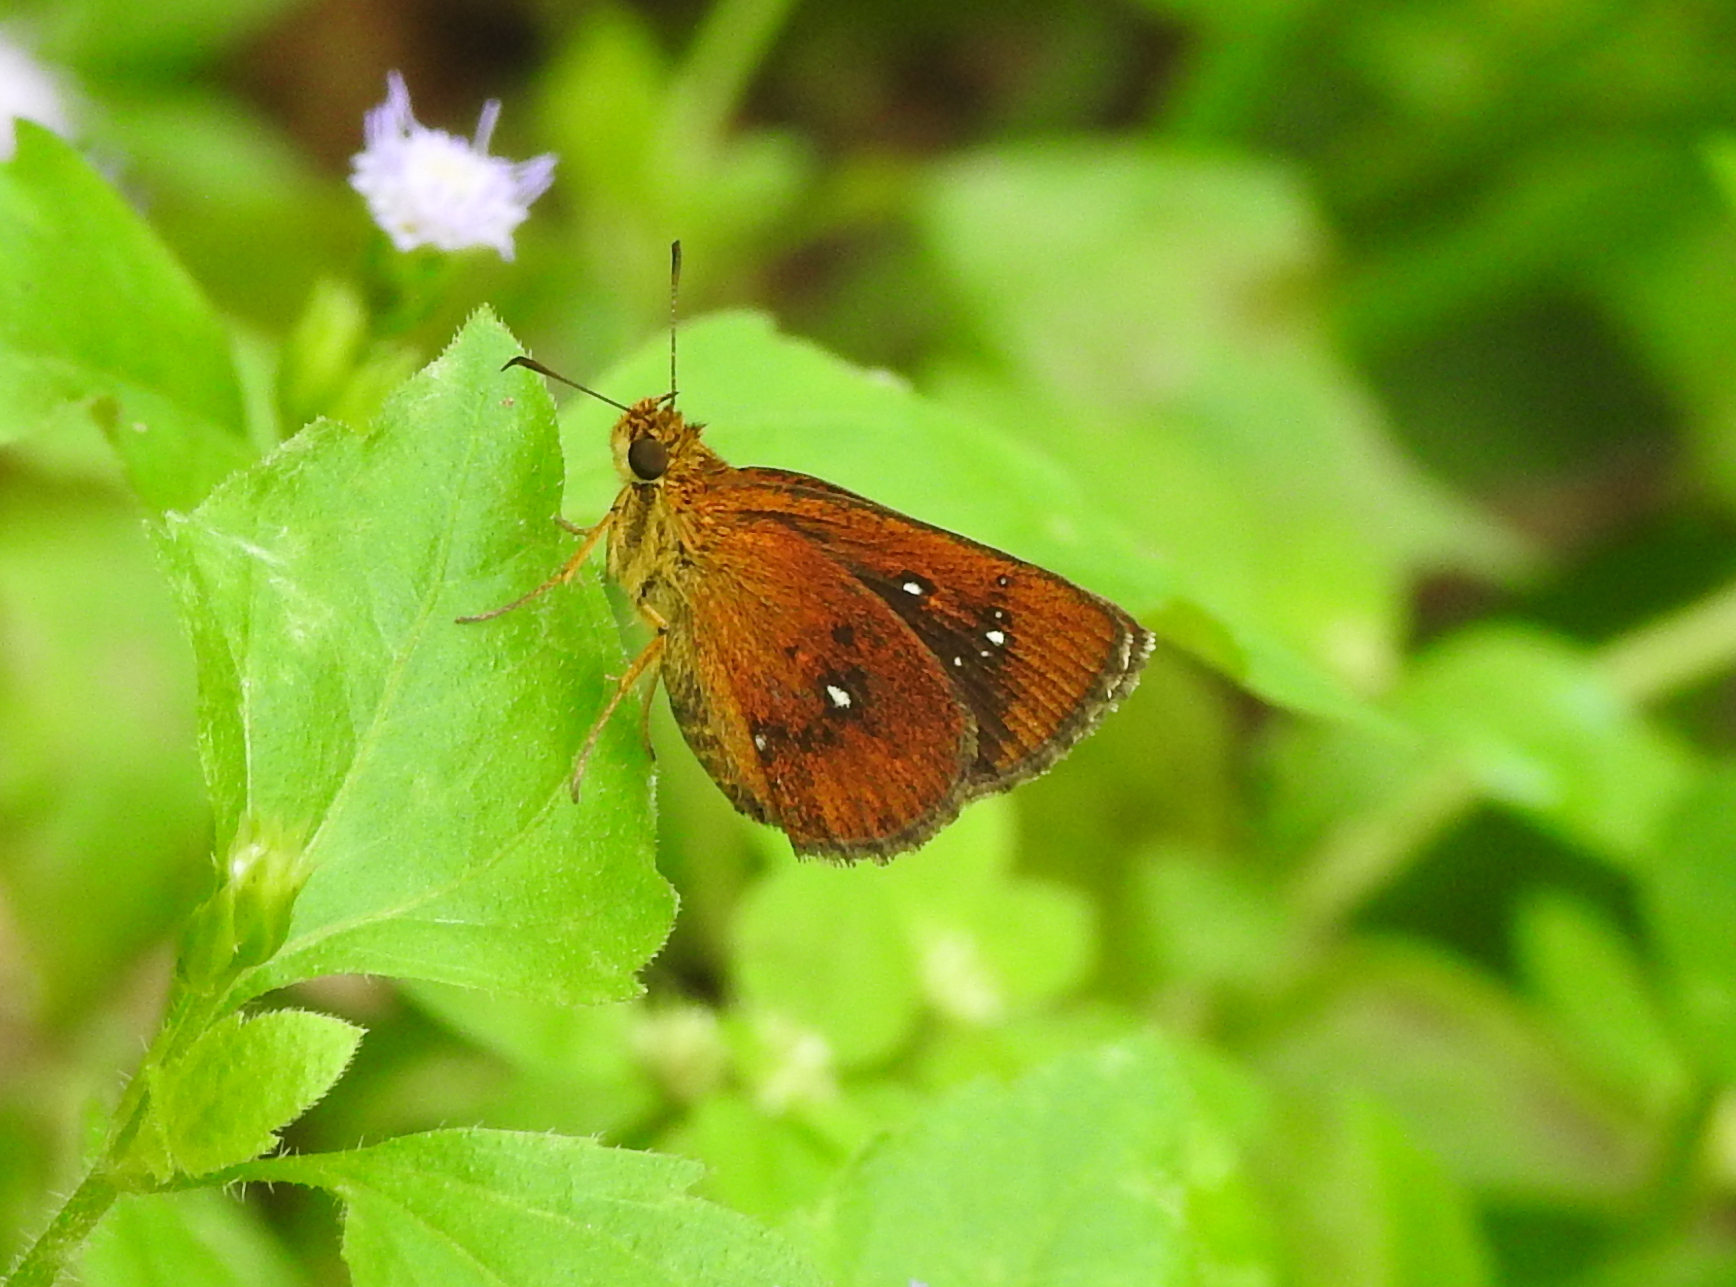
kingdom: Animalia
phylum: Arthropoda
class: Insecta
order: Lepidoptera
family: Hesperiidae
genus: Iambrix
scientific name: Iambrix salsala
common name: Chestnut bob
